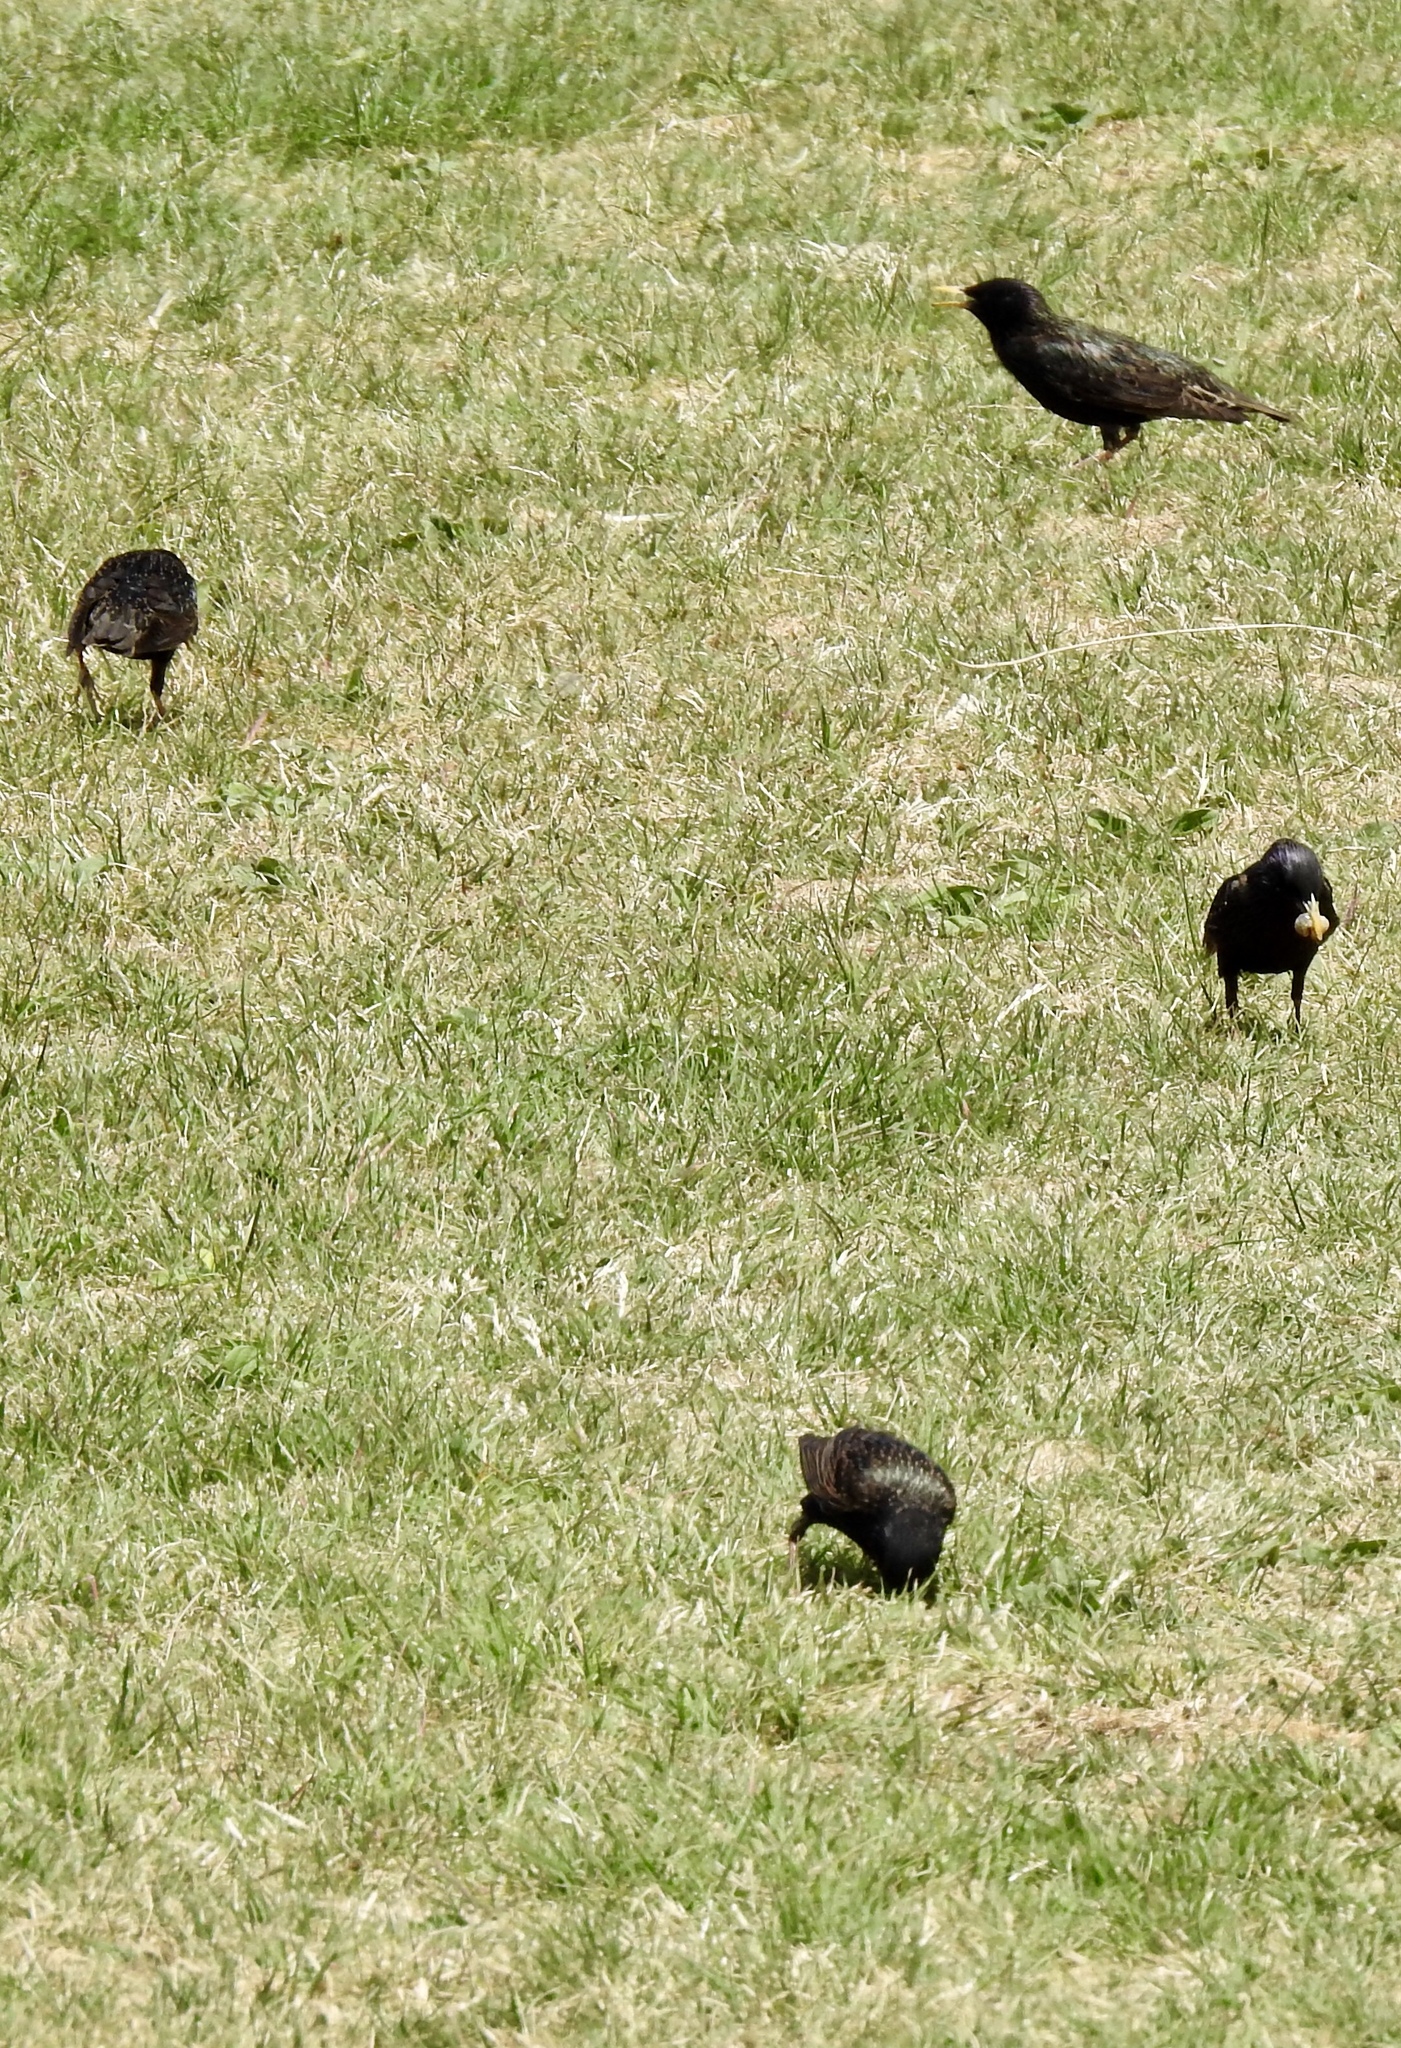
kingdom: Animalia
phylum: Chordata
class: Aves
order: Passeriformes
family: Sturnidae
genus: Sturnus
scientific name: Sturnus vulgaris
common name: Common starling
